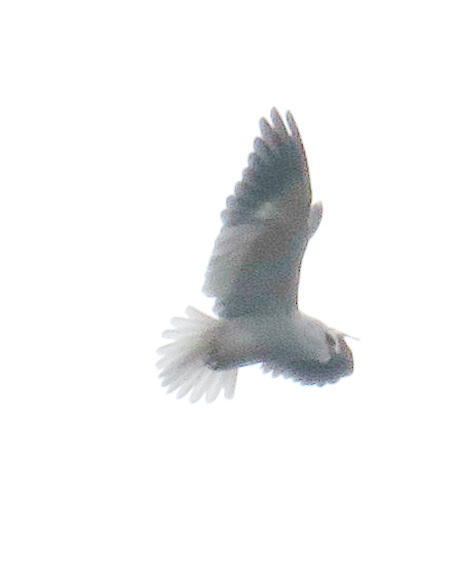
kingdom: Animalia
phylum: Chordata
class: Aves
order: Accipitriformes
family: Accipitridae
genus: Elanus
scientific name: Elanus caeruleus
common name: Black-winged kite
